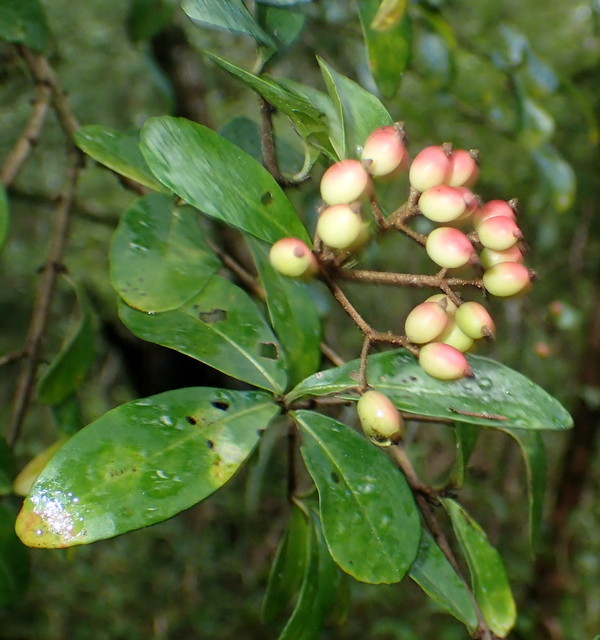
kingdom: Plantae
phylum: Tracheophyta
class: Magnoliopsida
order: Dipsacales
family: Viburnaceae
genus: Viburnum
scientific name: Viburnum obovatum
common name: Walter's viburnum
